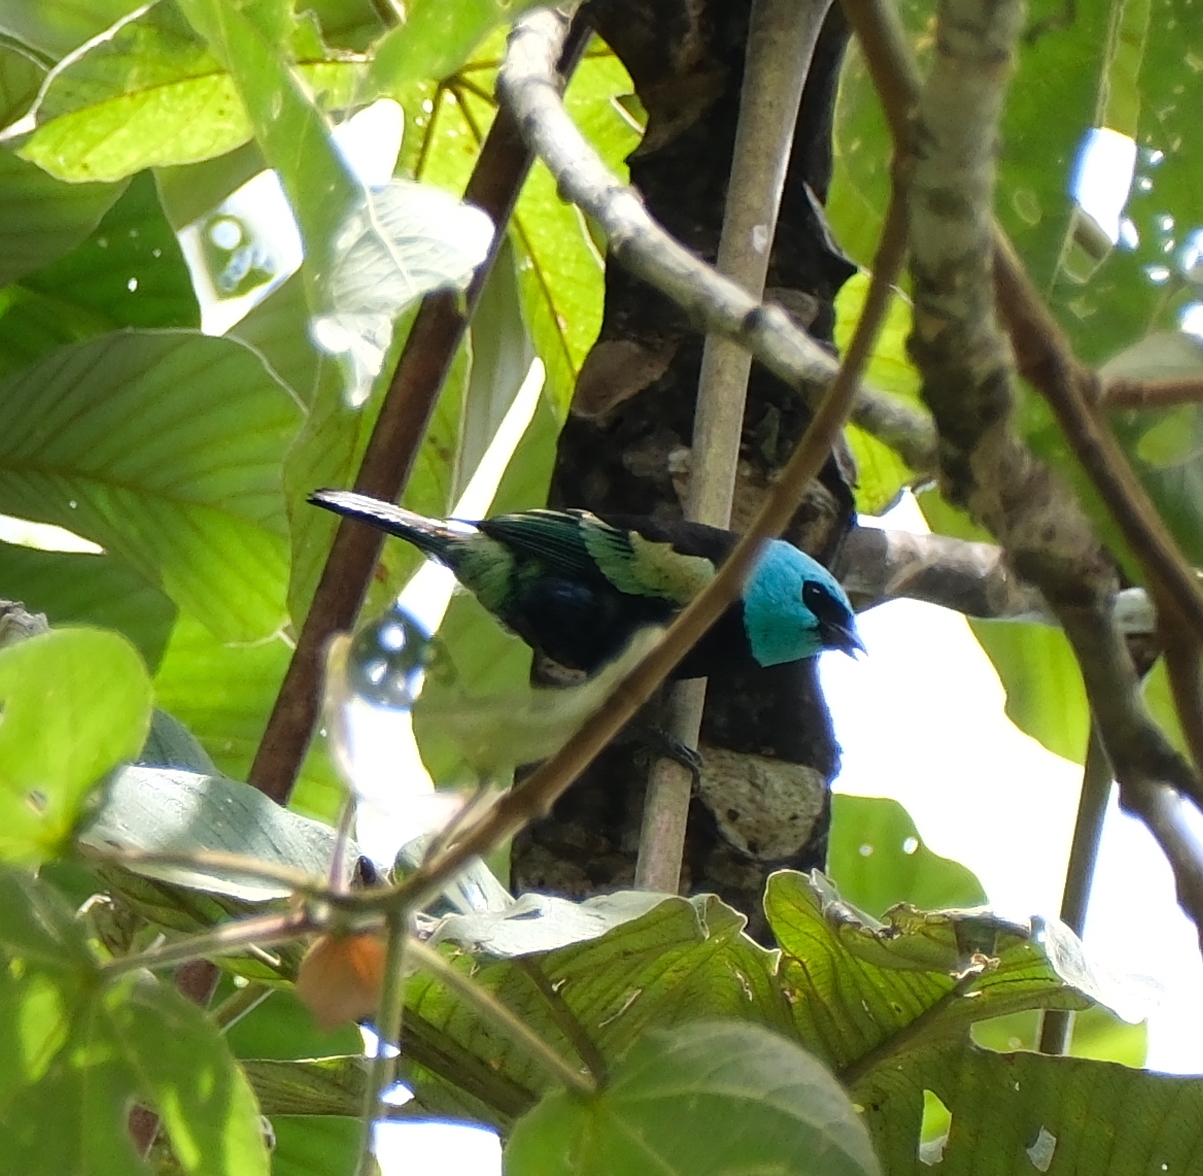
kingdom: Animalia
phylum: Chordata
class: Aves
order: Passeriformes
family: Thraupidae
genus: Stilpnia
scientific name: Stilpnia cyanicollis
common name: Blue-necked tanager
